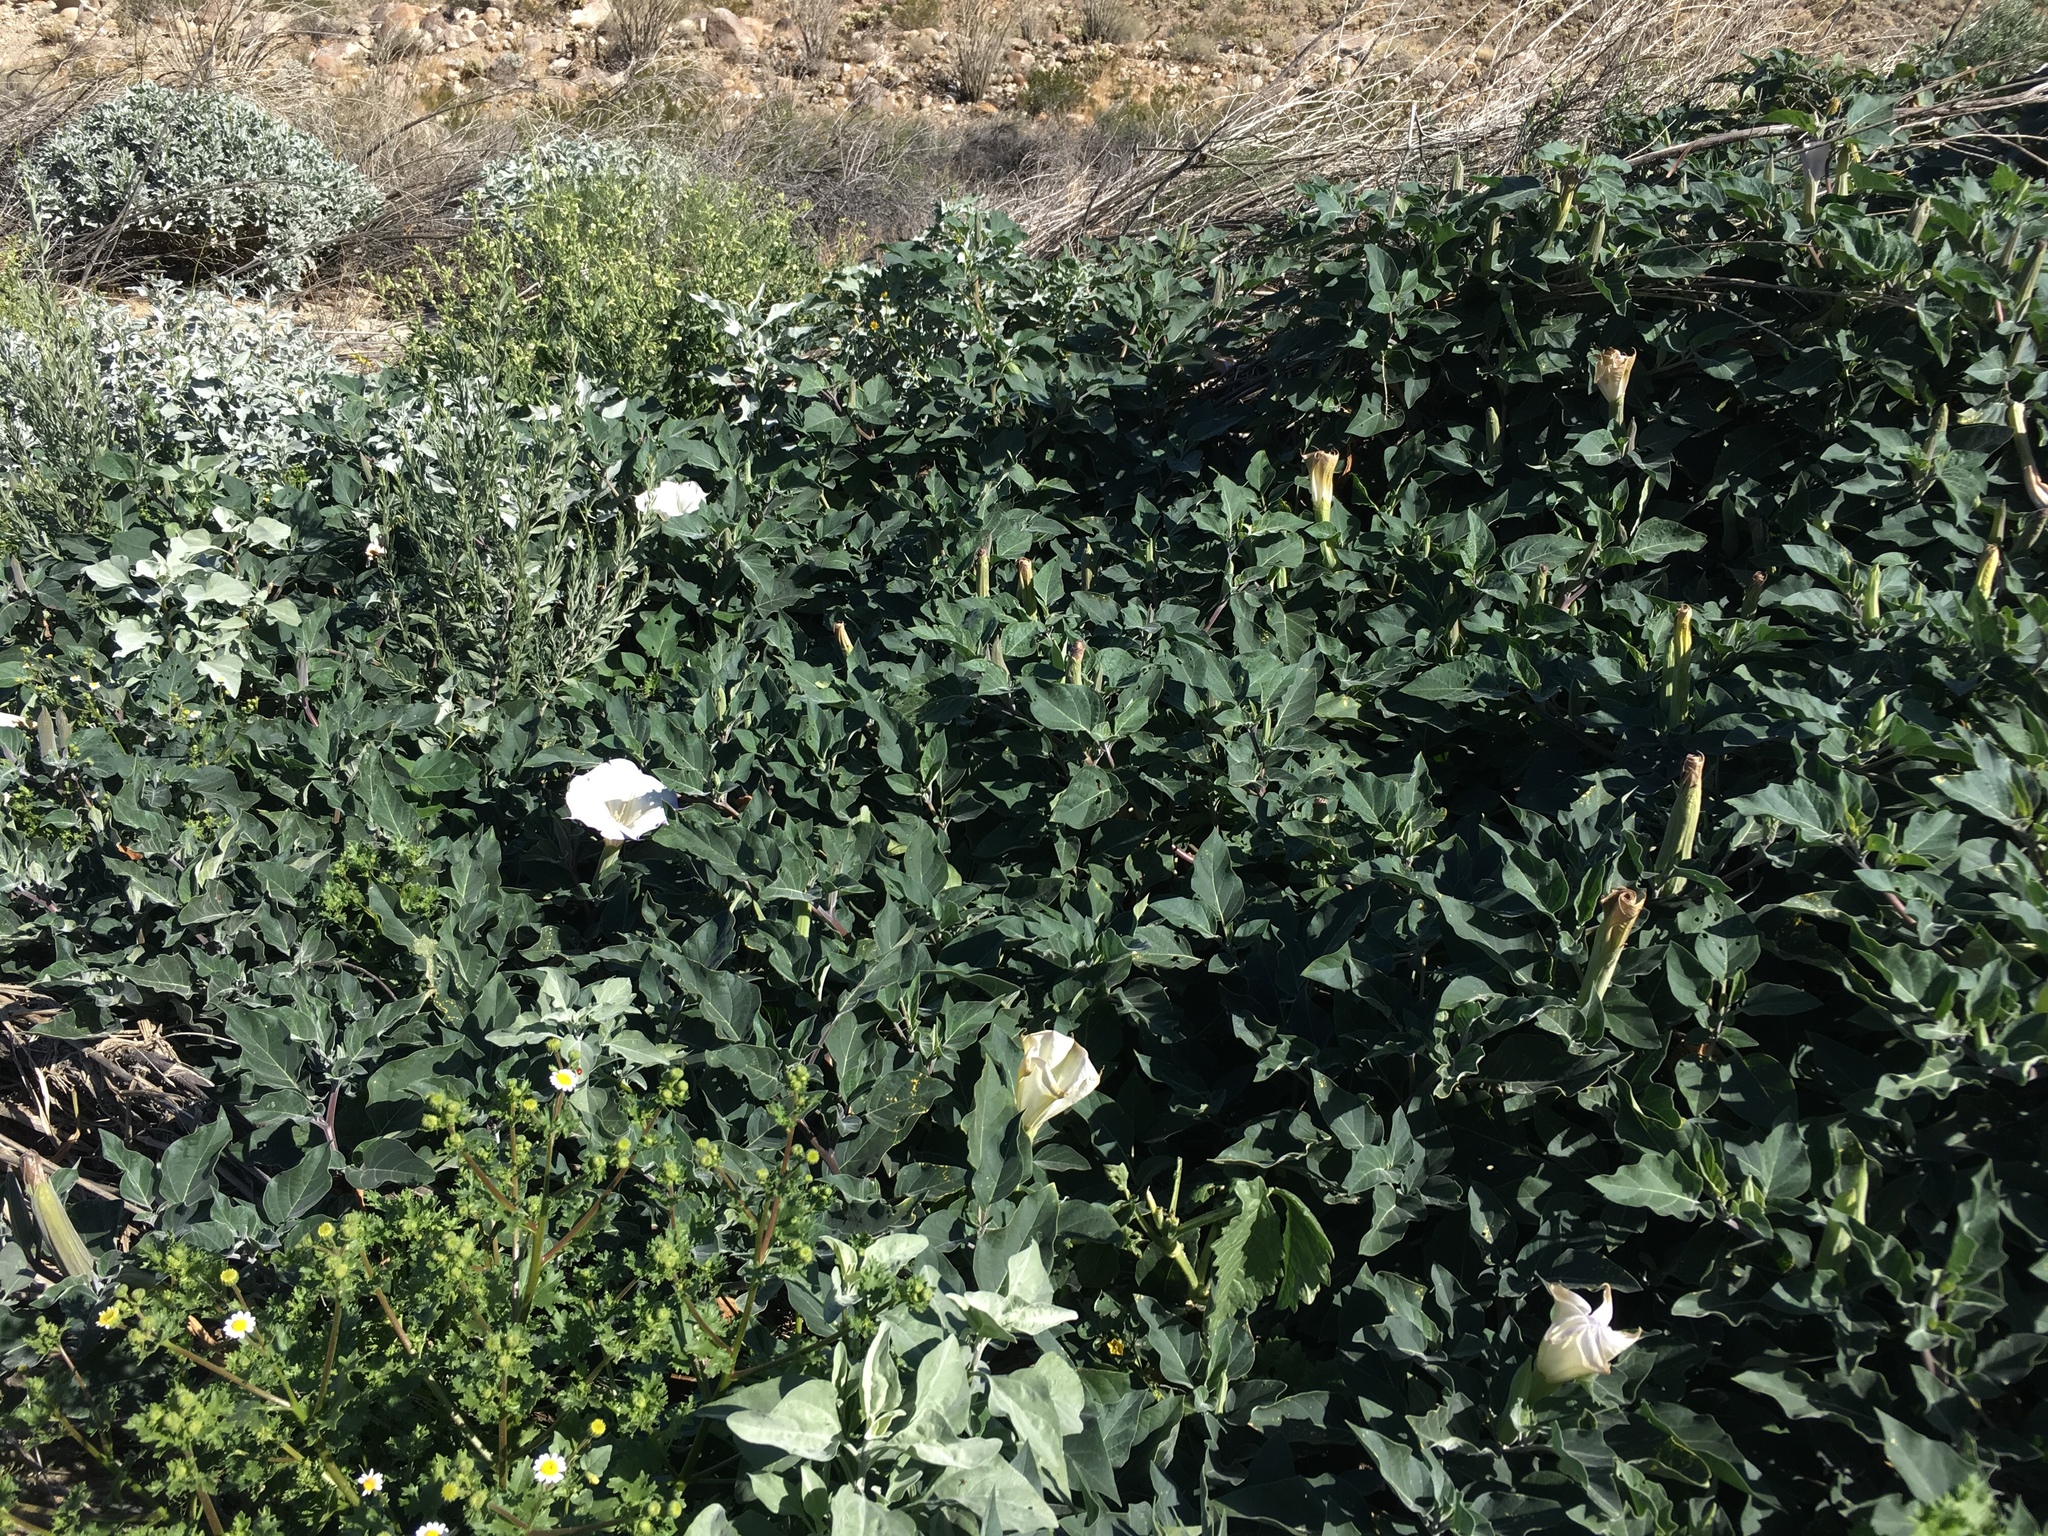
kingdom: Plantae
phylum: Tracheophyta
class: Magnoliopsida
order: Solanales
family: Solanaceae
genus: Datura
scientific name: Datura wrightii
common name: Sacred thorn-apple
